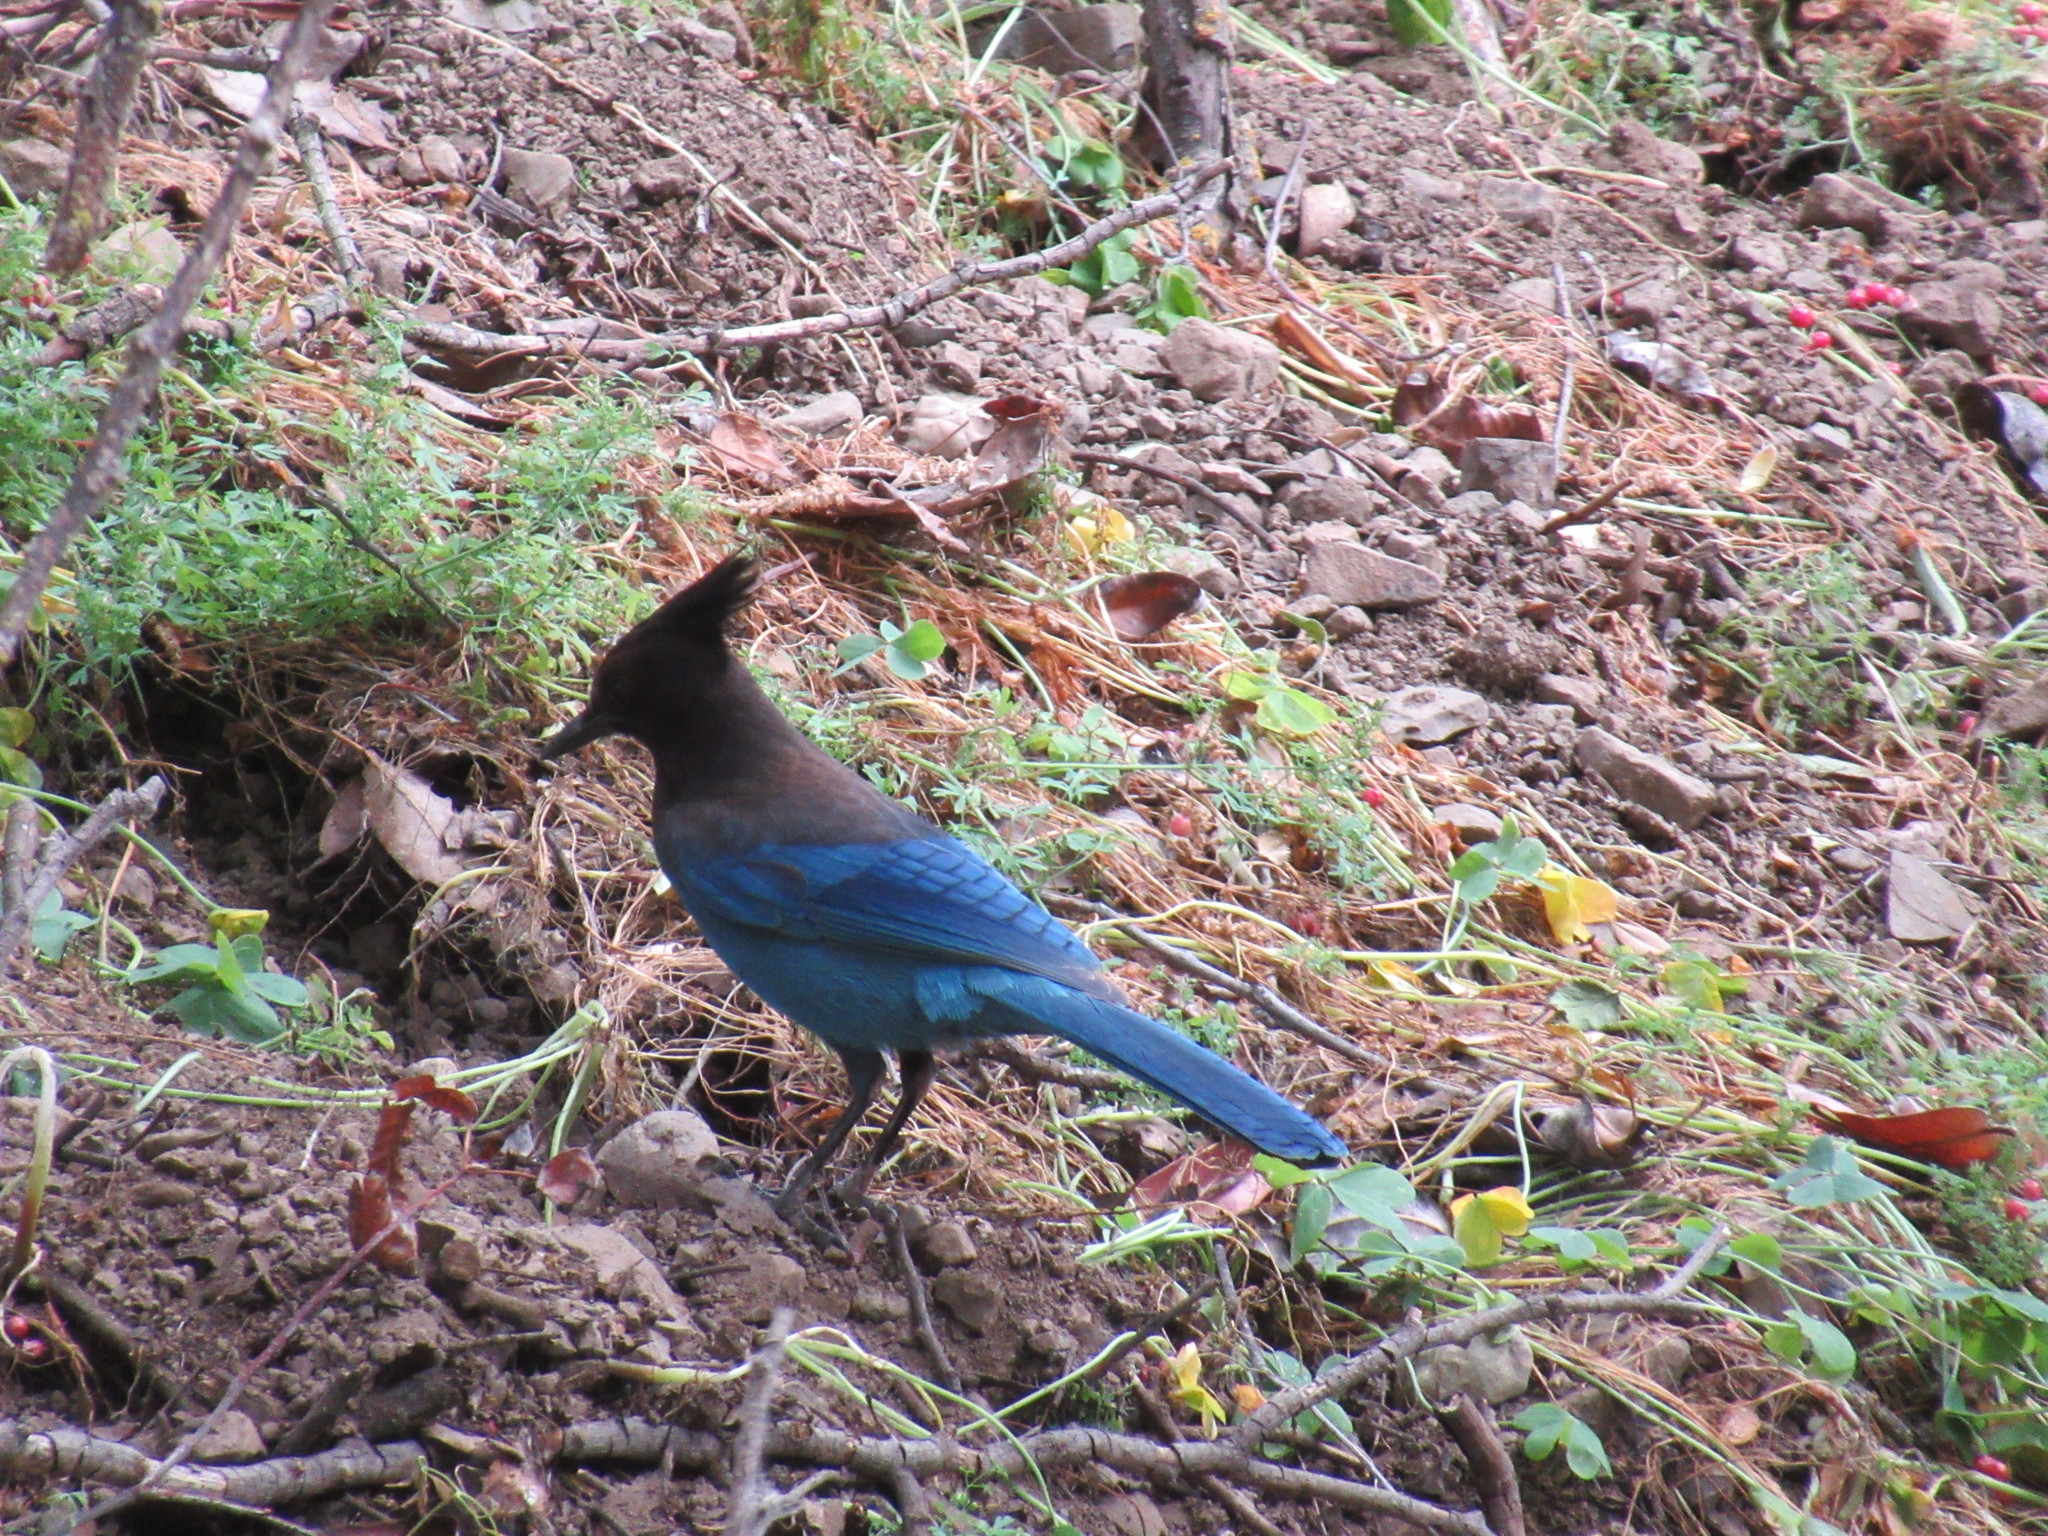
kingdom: Animalia
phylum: Chordata
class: Aves
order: Passeriformes
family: Corvidae
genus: Cyanocitta
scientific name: Cyanocitta stelleri
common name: Steller's jay
